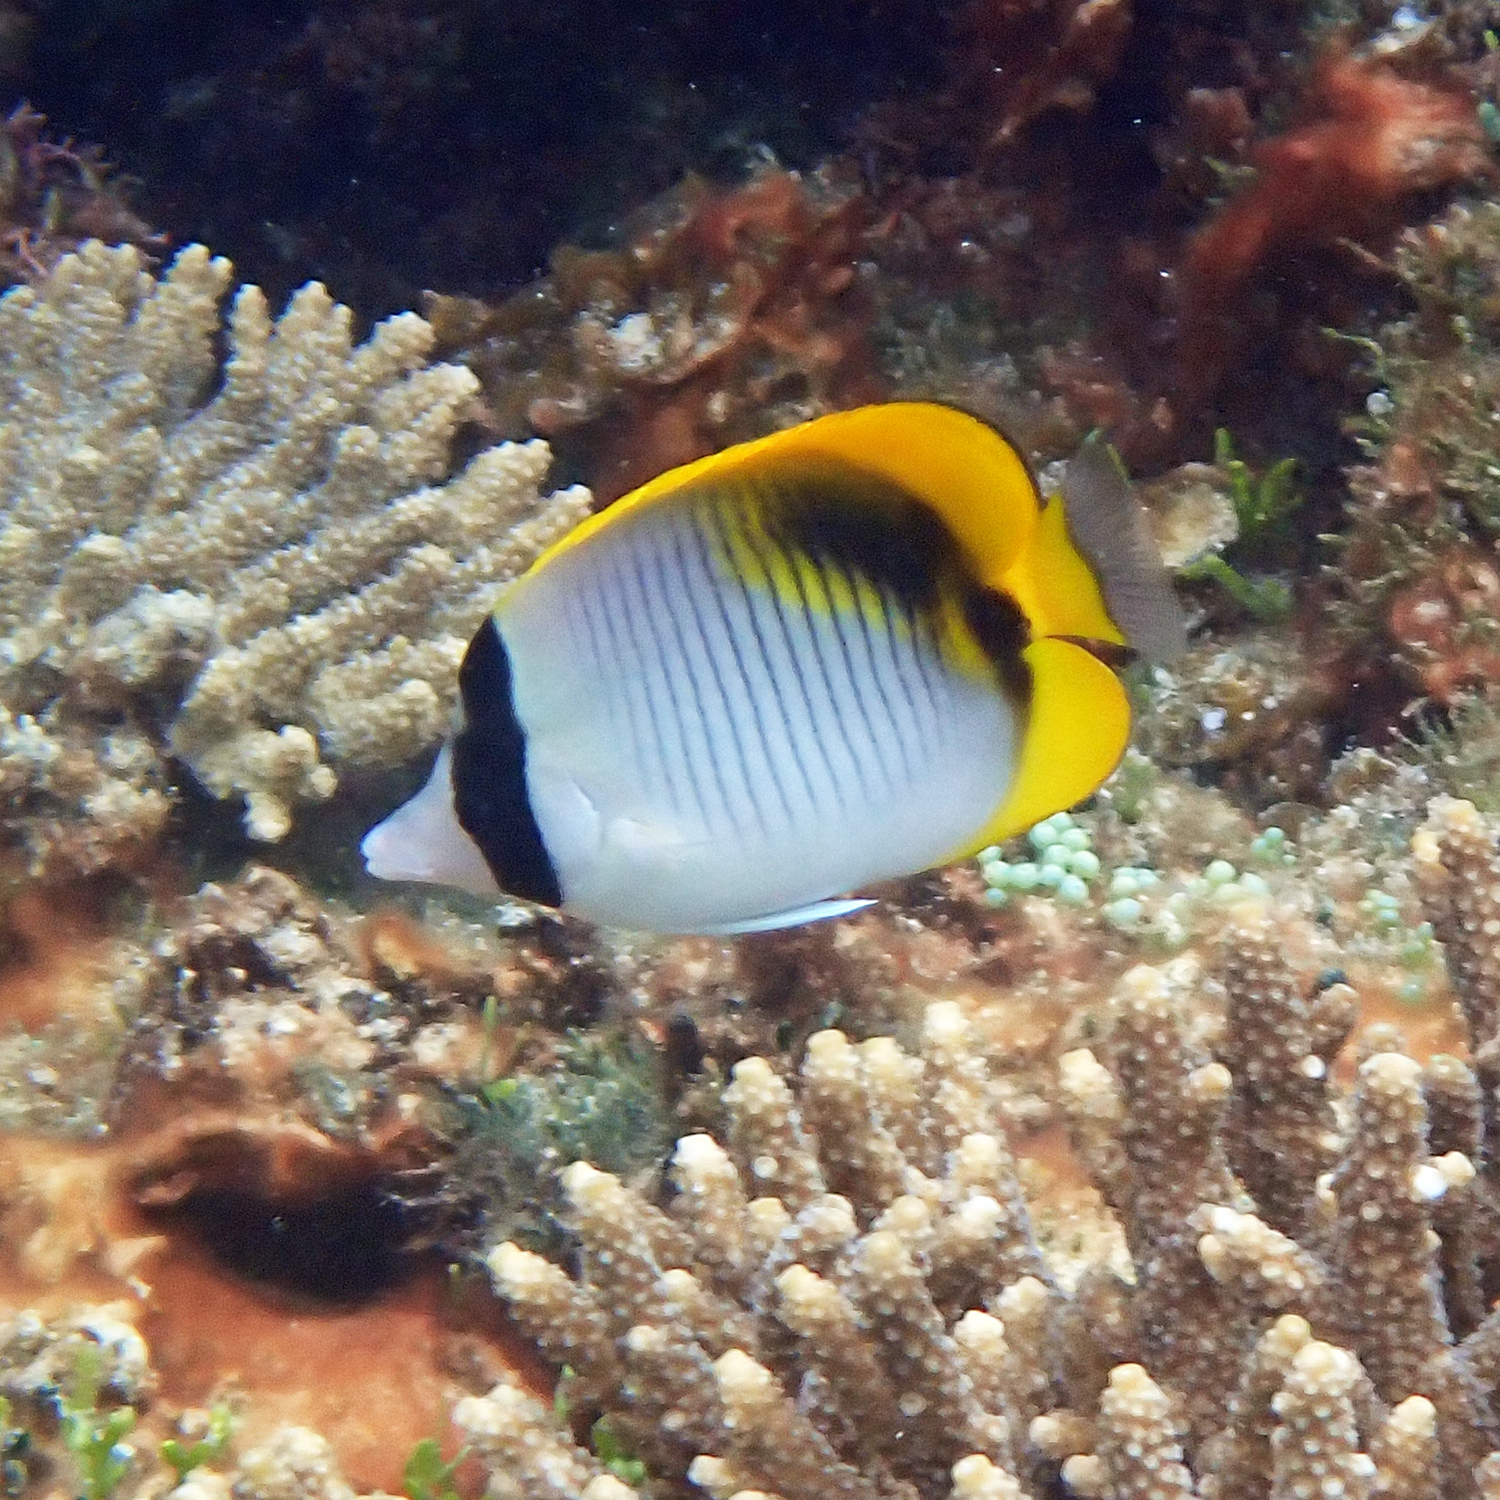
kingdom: Animalia
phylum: Chordata
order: Perciformes
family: Chaetodontidae
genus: Chaetodon
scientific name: Chaetodon lineolatus
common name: Lined butterflyfish
